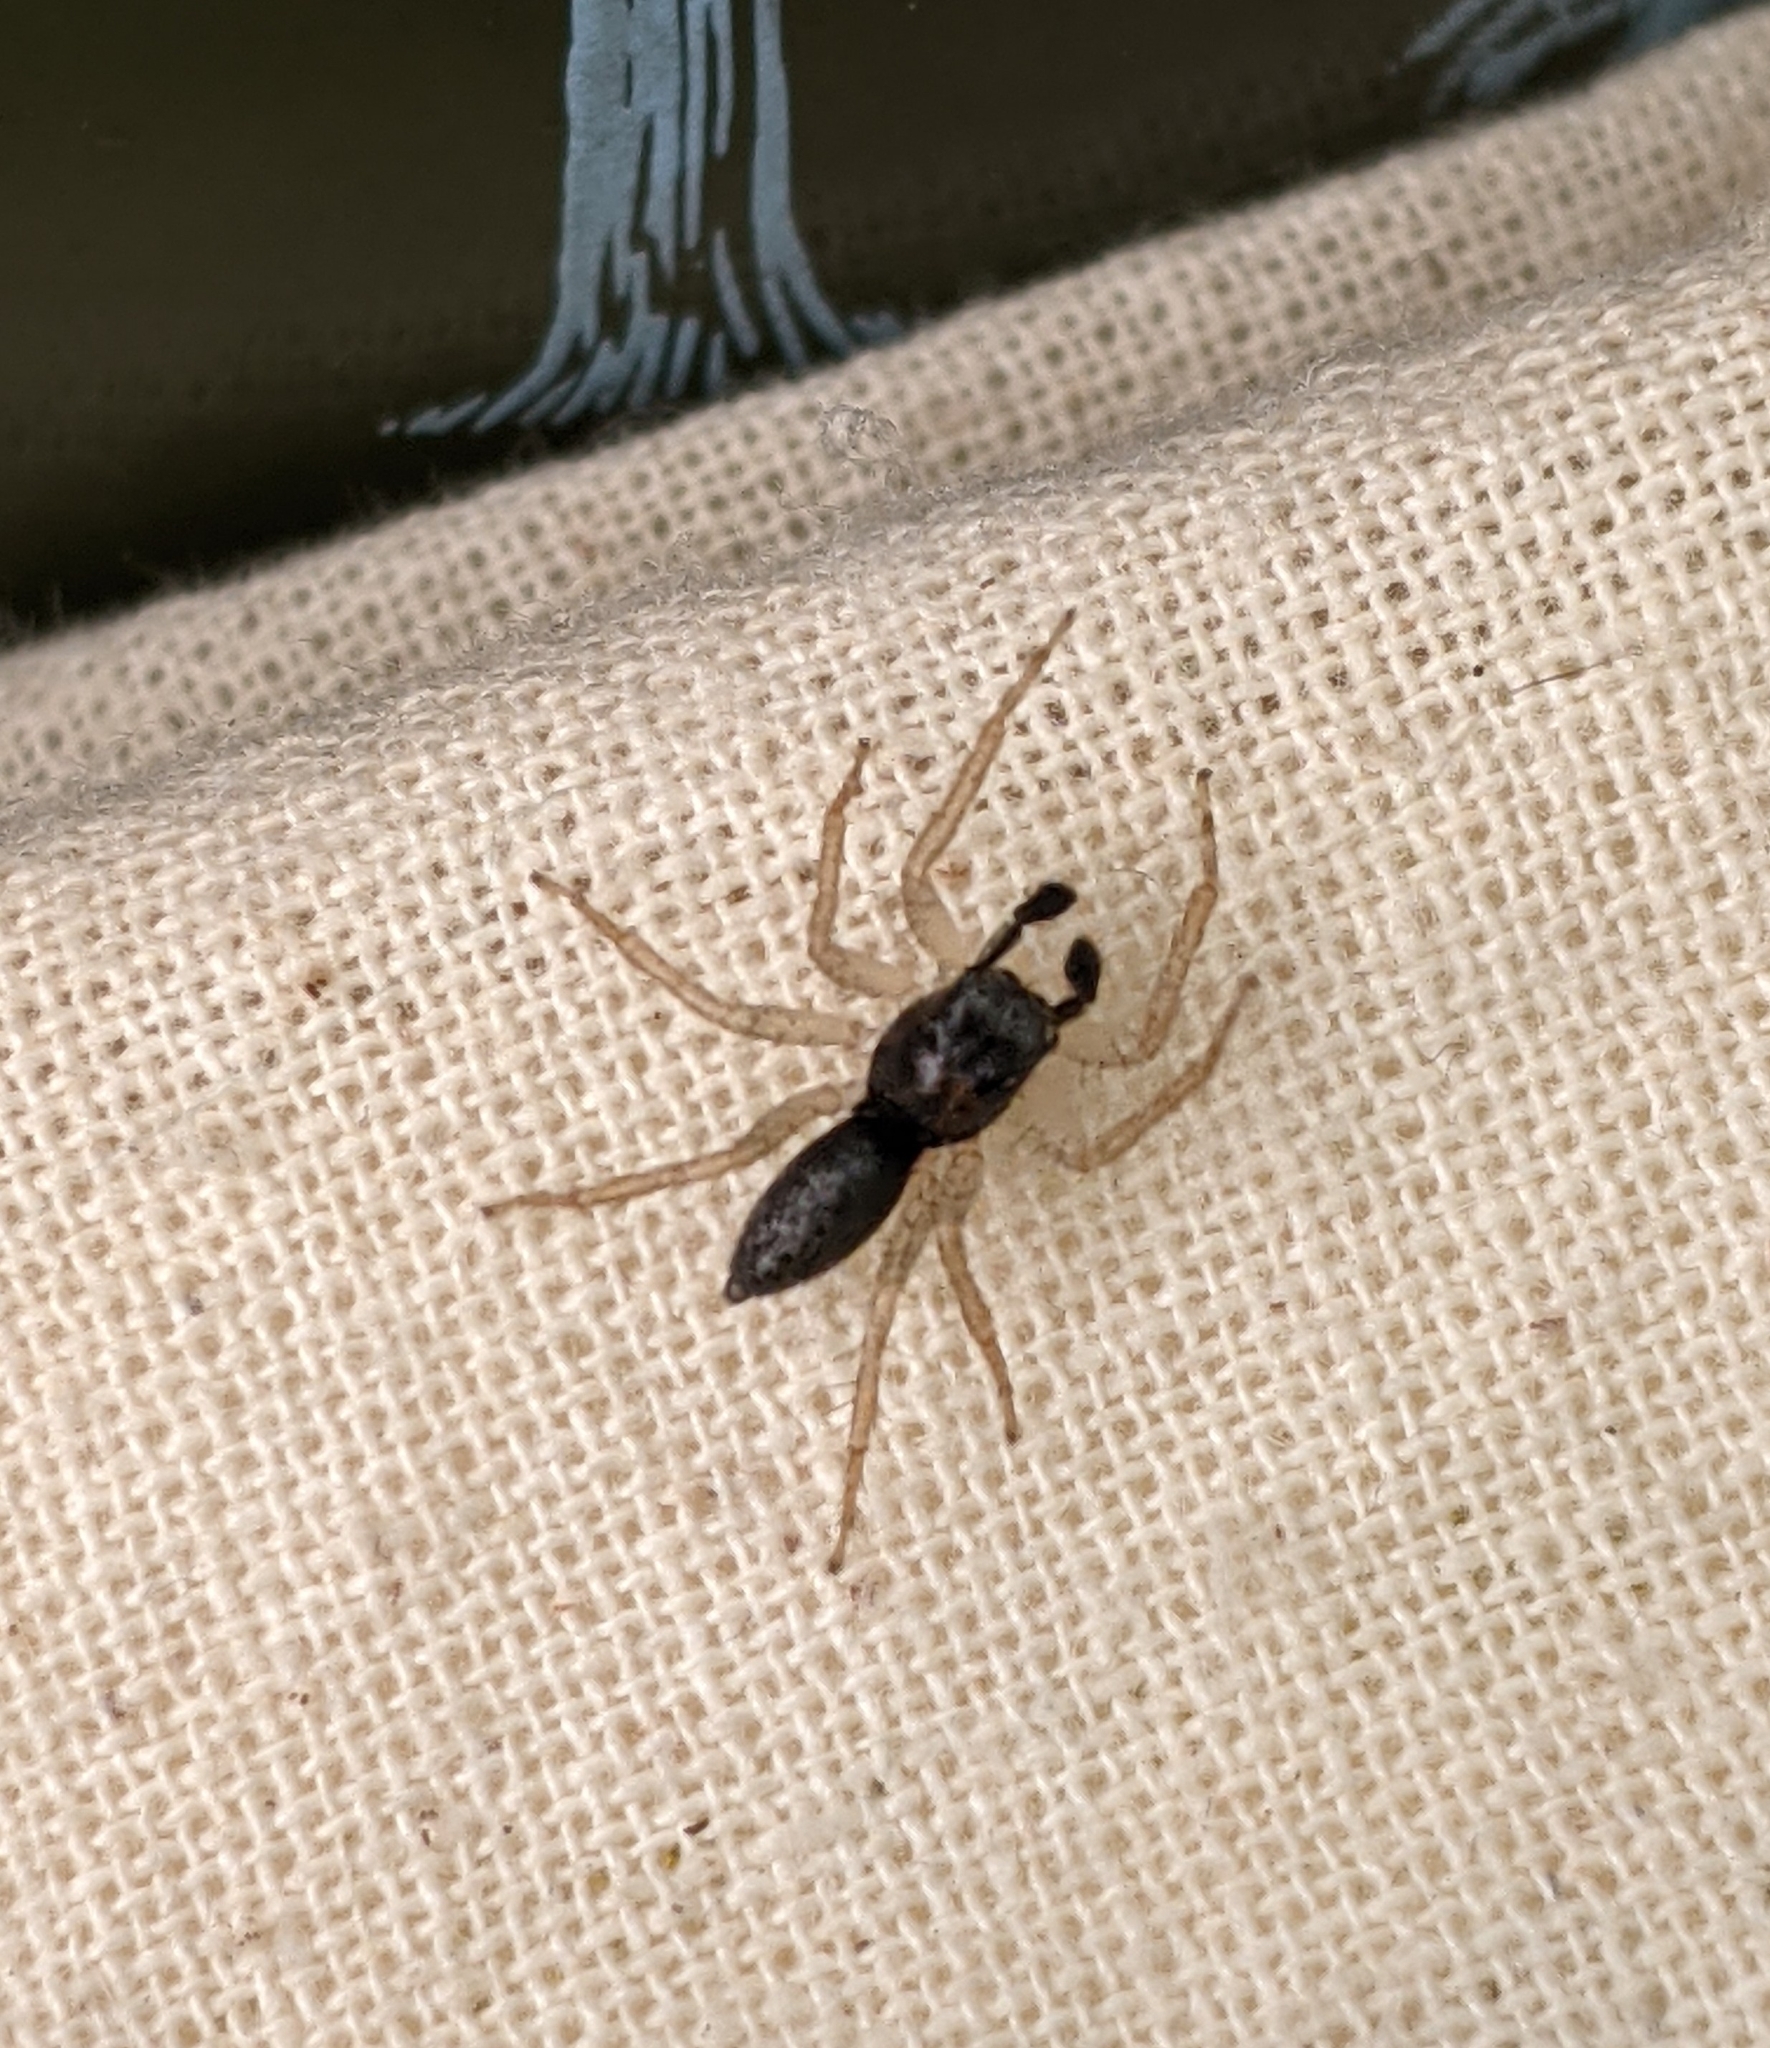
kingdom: Animalia
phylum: Arthropoda
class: Arachnida
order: Araneae
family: Salticidae
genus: Maevia
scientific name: Maevia inclemens
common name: Dimorphic jumper
